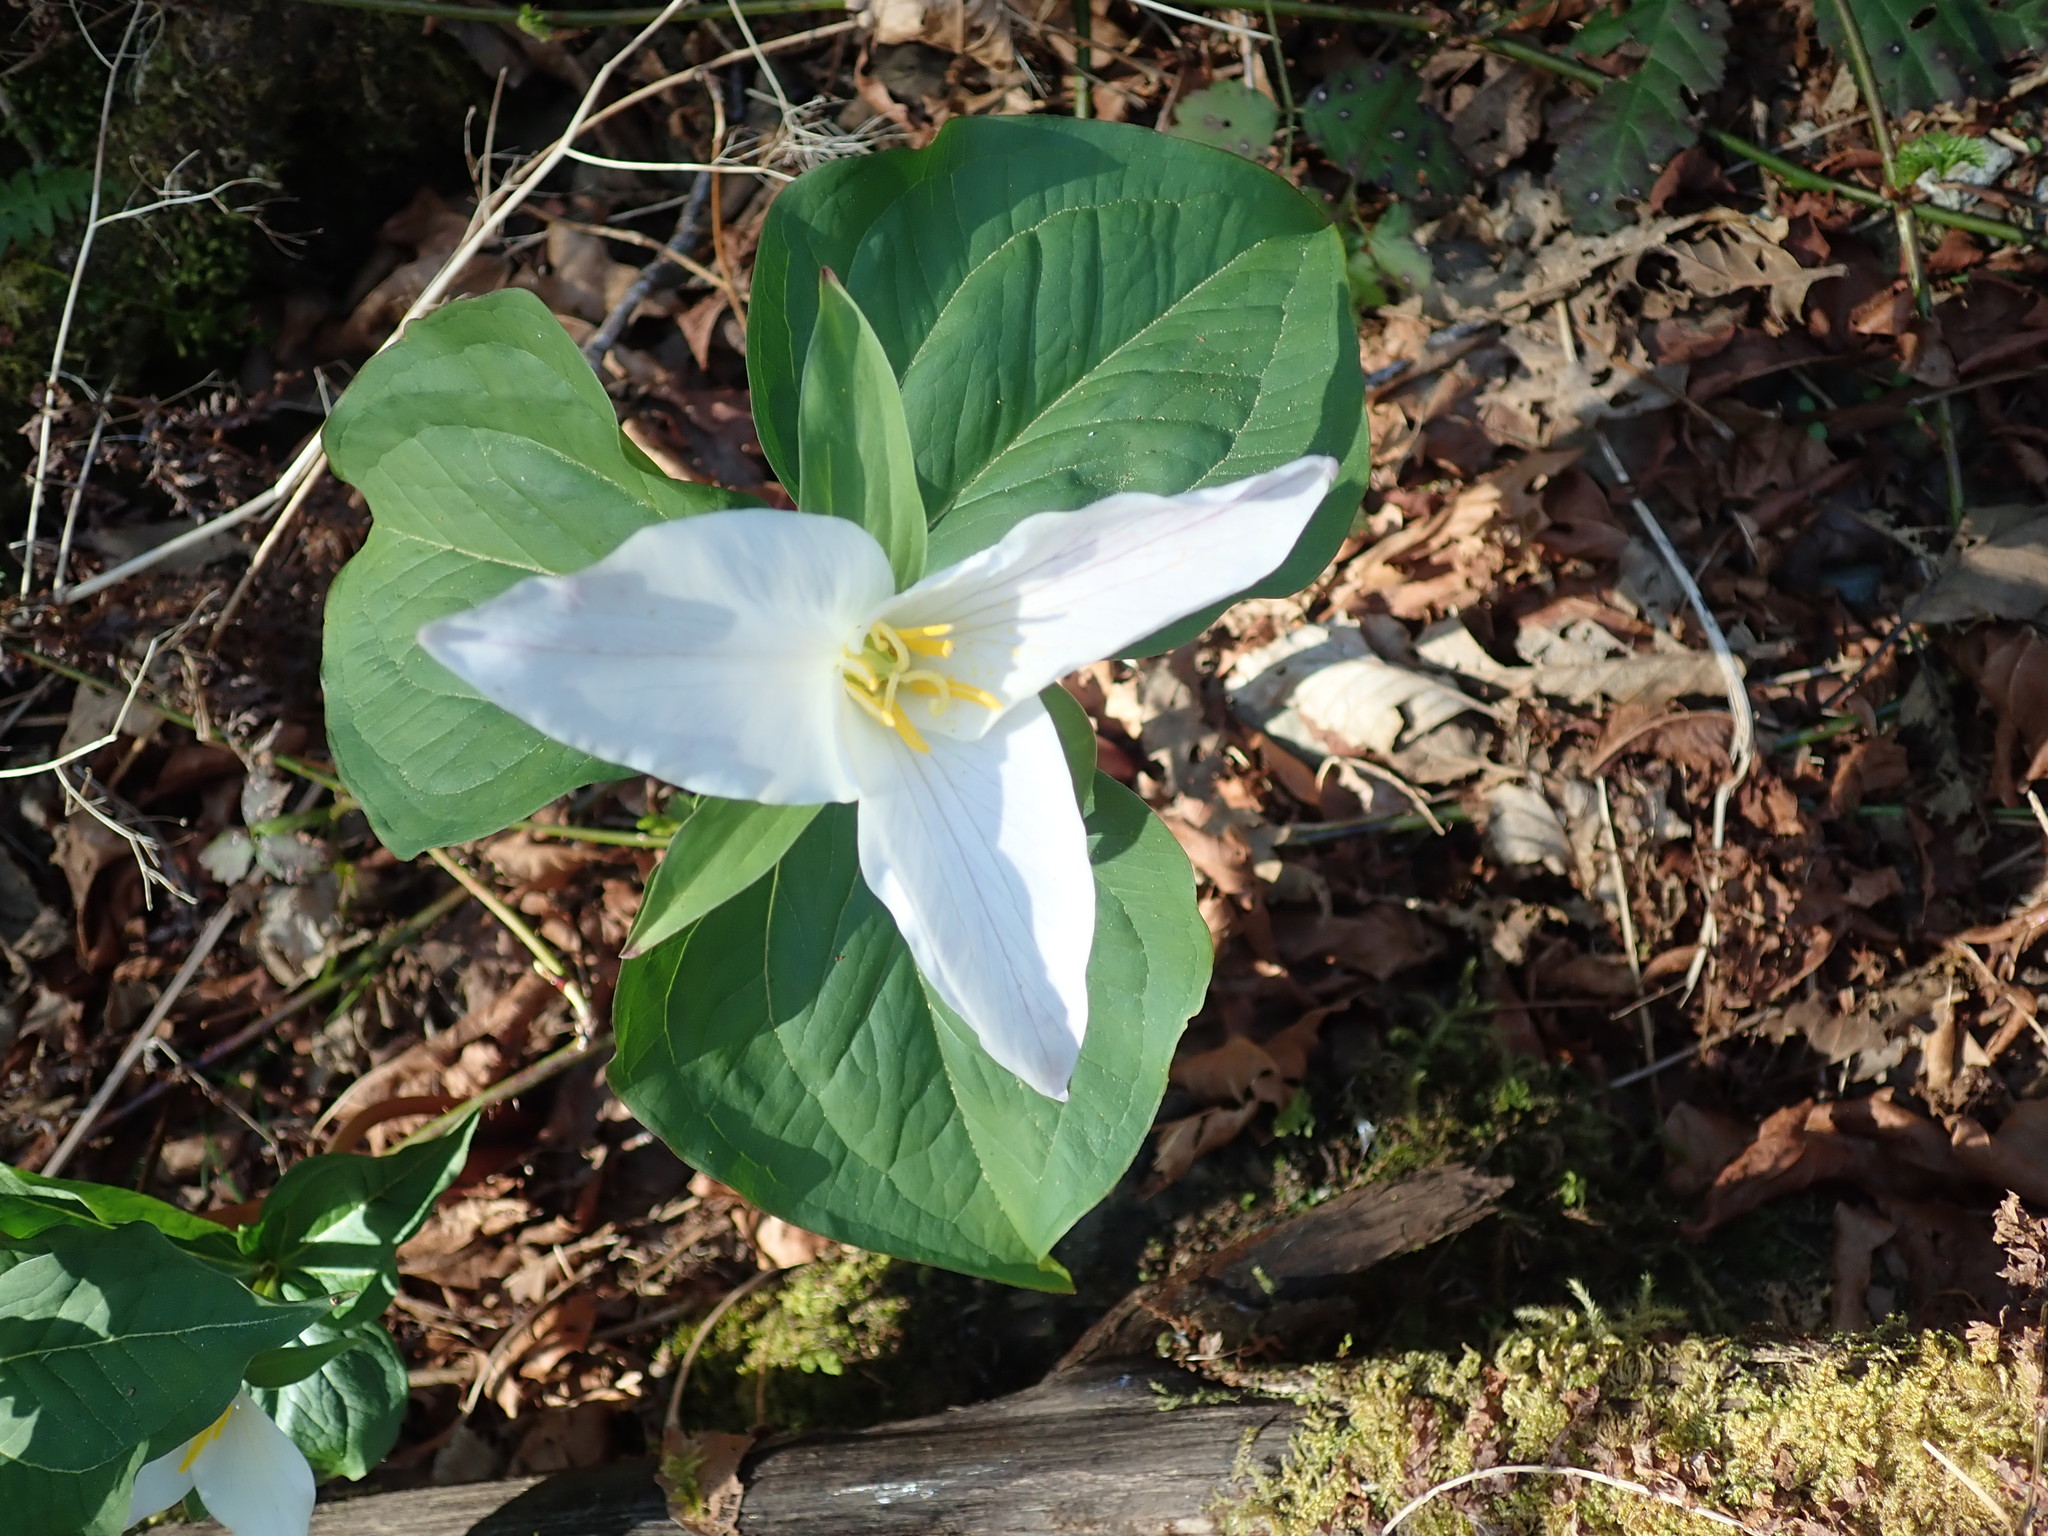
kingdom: Plantae
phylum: Tracheophyta
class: Liliopsida
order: Liliales
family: Melanthiaceae
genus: Trillium
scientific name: Trillium ovatum
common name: Pacific trillium
